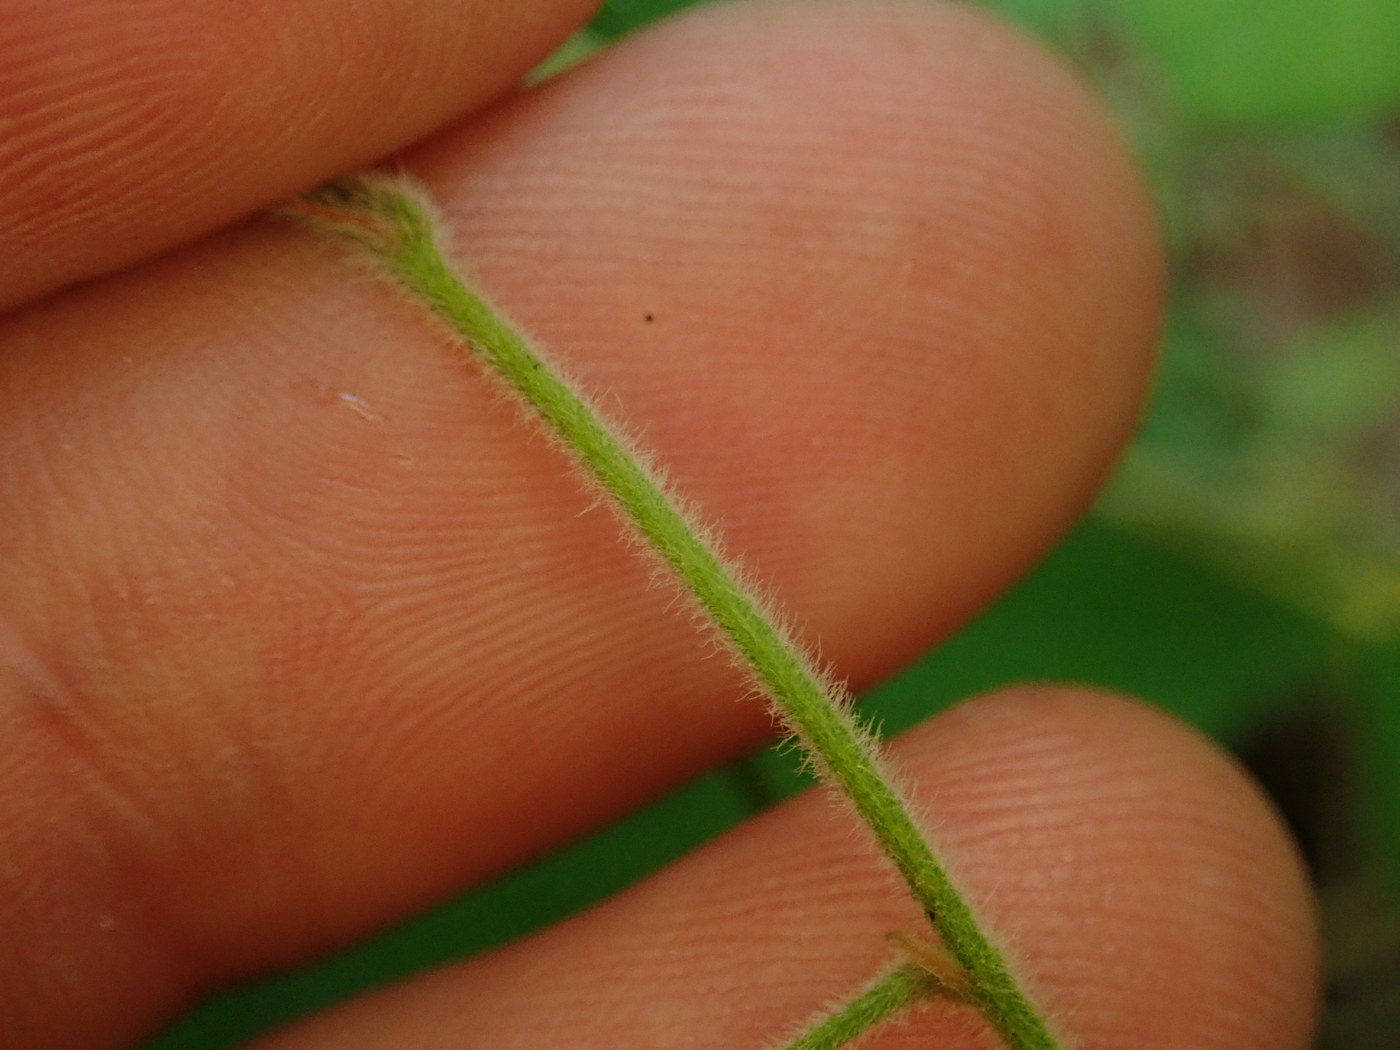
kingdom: Plantae
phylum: Tracheophyta
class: Magnoliopsida
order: Fabales
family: Fabaceae
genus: Lespedeza
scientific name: Lespedeza procumbens
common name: Downy trailing bush-clover
